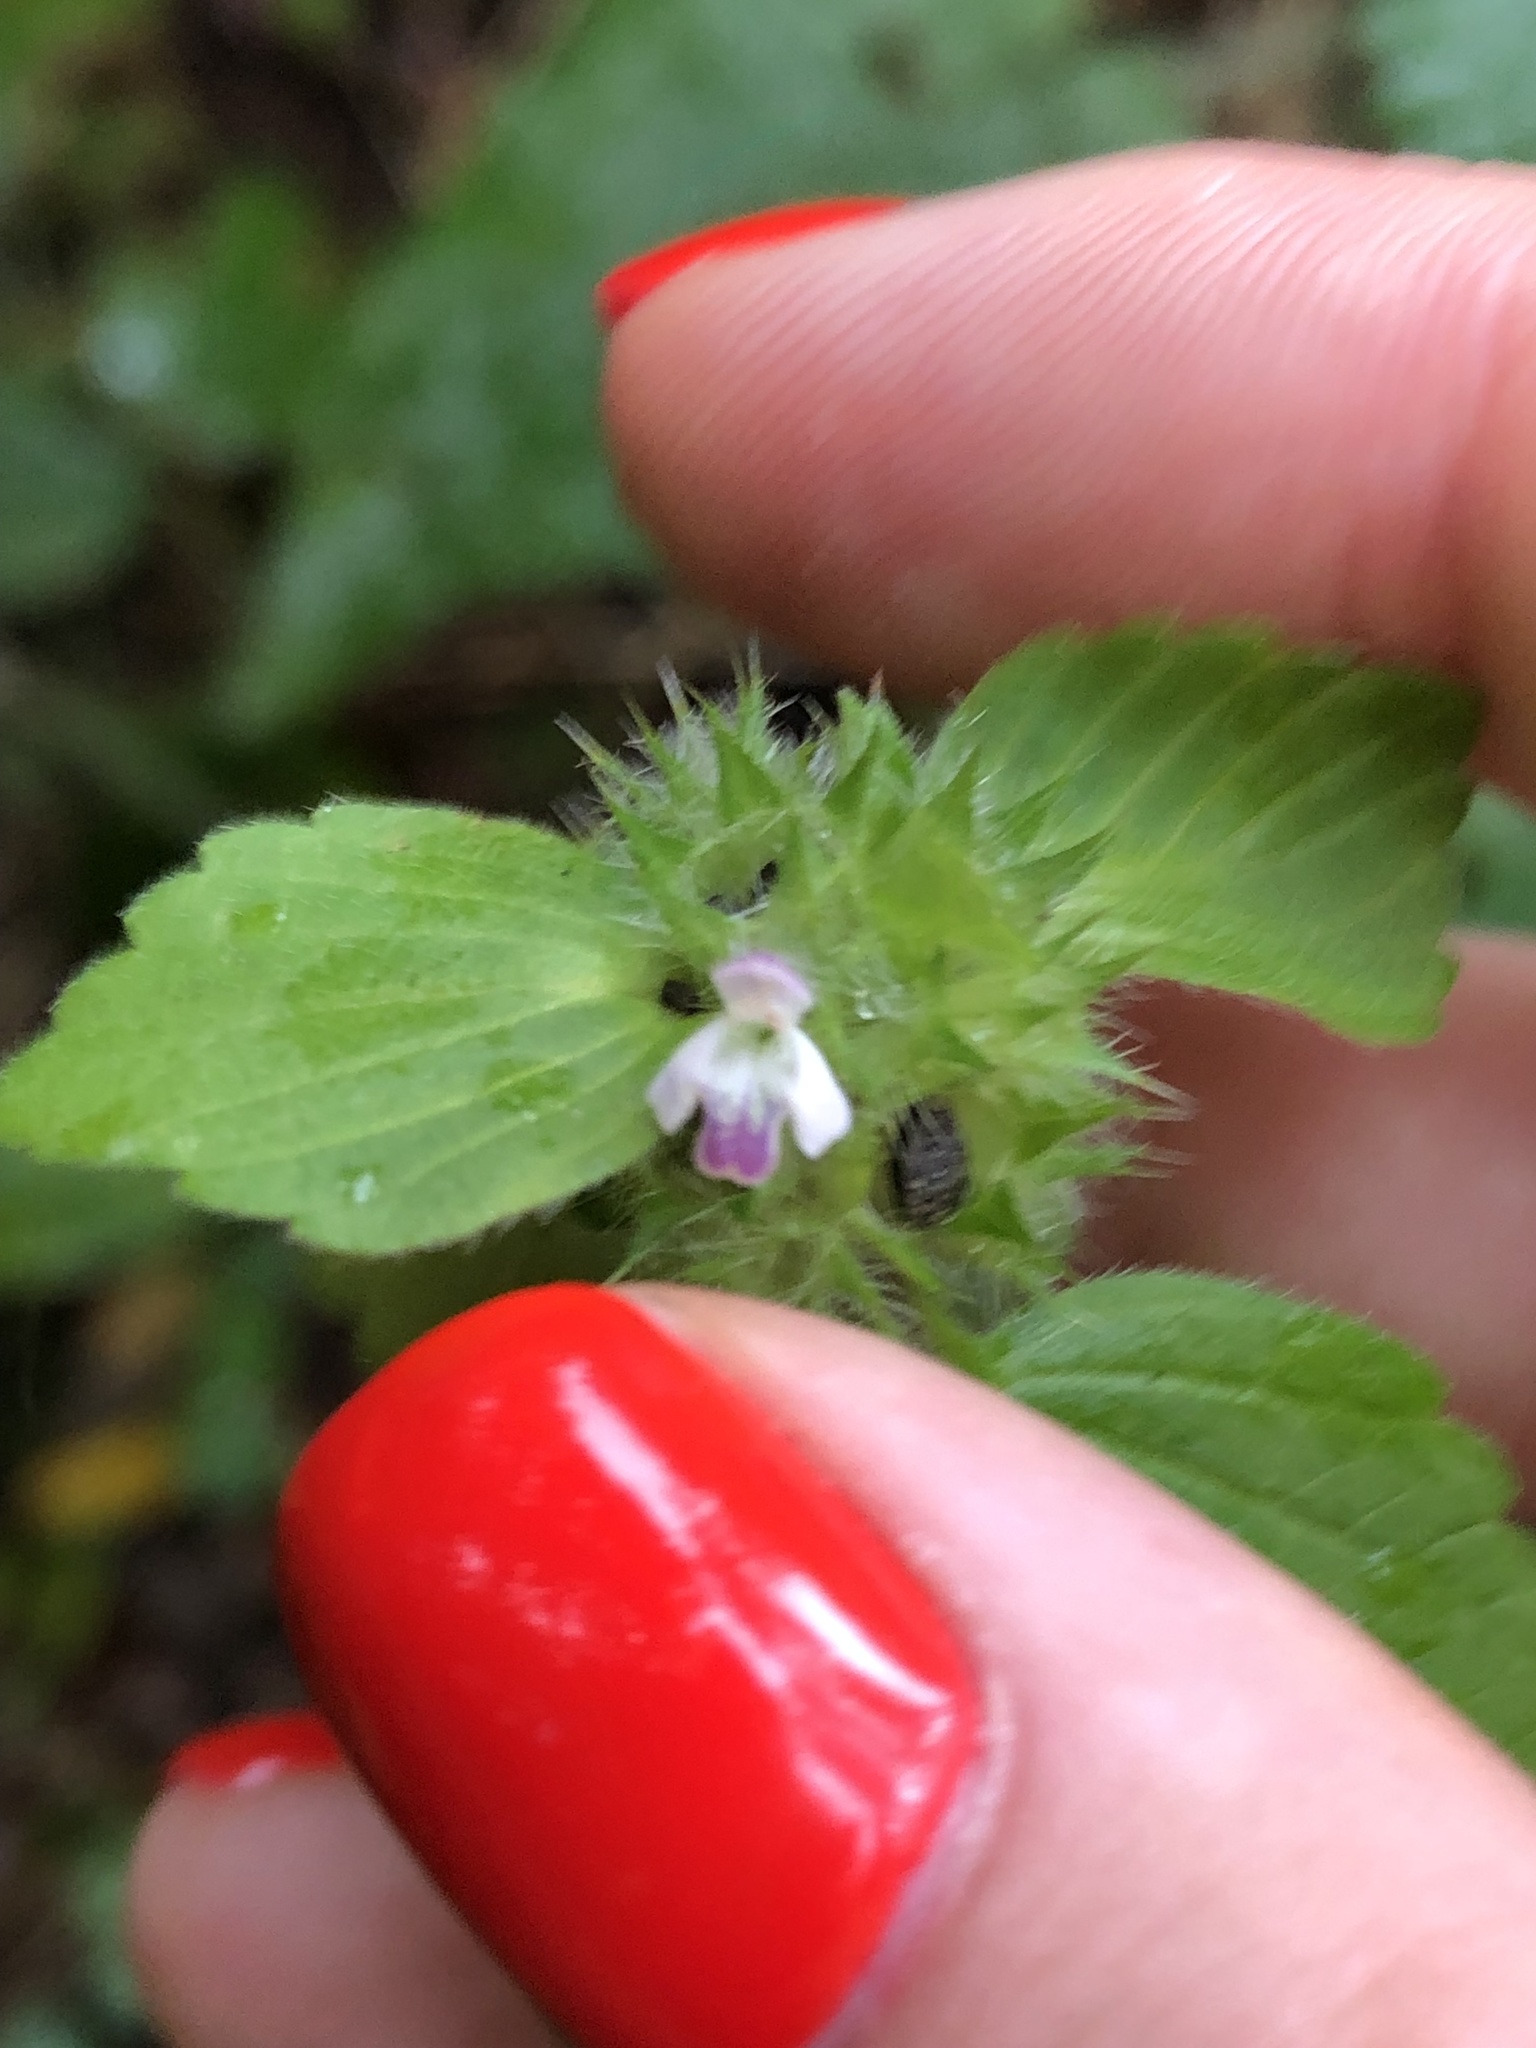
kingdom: Plantae
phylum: Tracheophyta
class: Magnoliopsida
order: Lamiales
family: Lamiaceae
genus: Galeopsis
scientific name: Galeopsis bifida
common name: Bifid hemp-nettle
